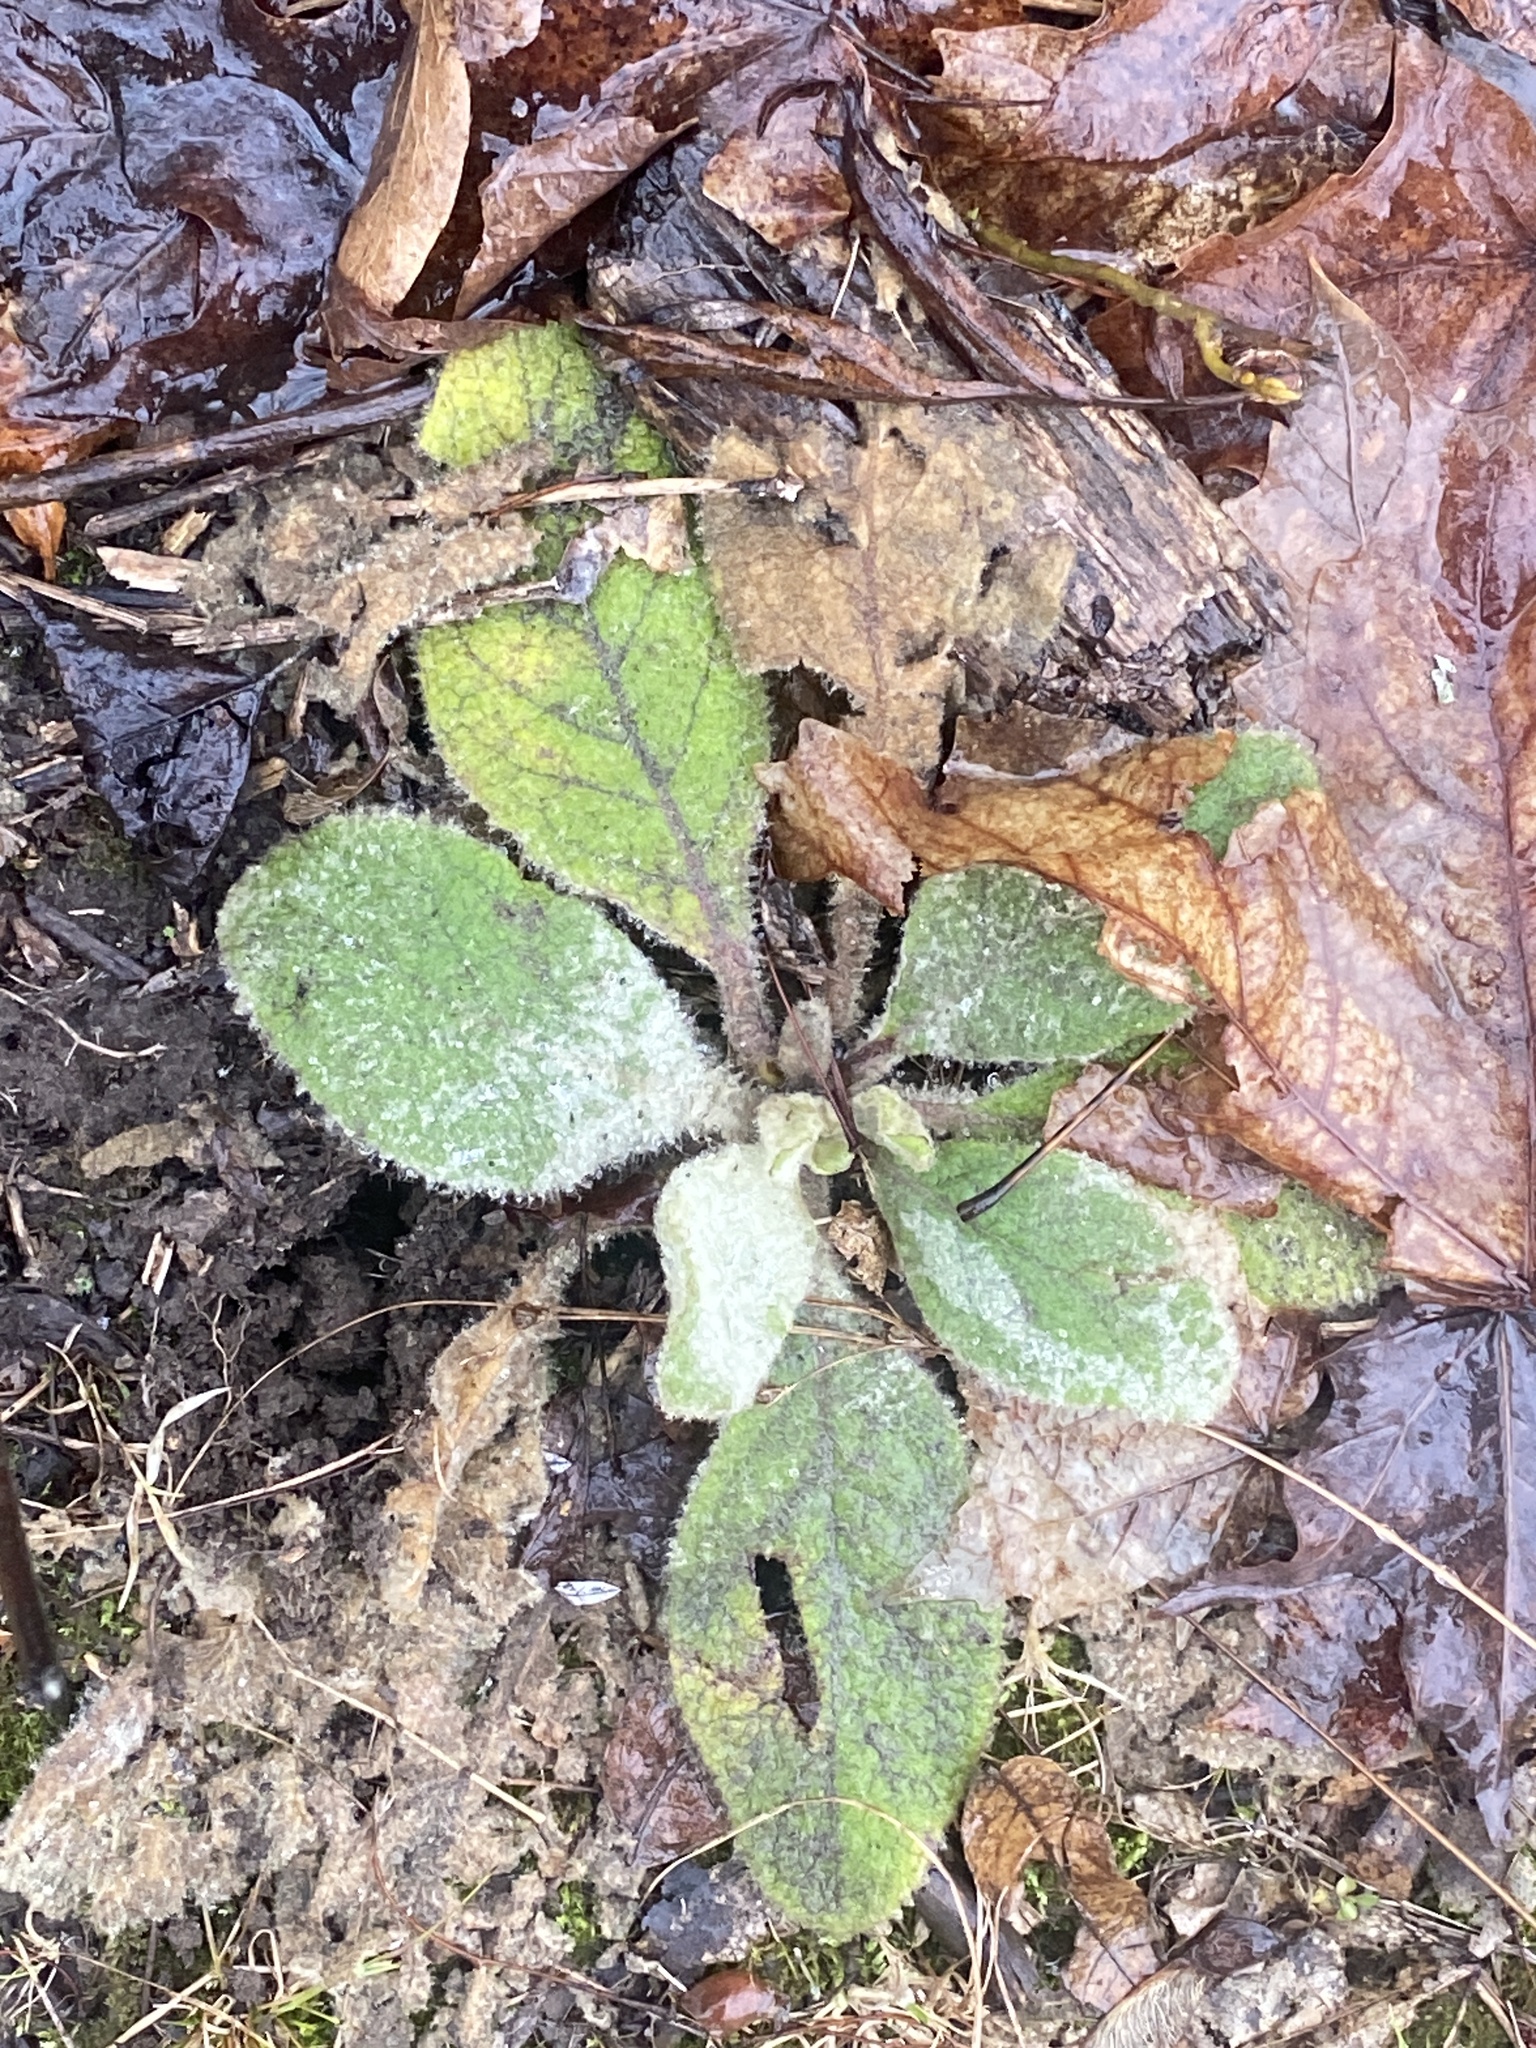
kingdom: Plantae
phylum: Tracheophyta
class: Magnoliopsida
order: Lamiales
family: Scrophulariaceae
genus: Verbascum
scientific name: Verbascum thapsus
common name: Common mullein
